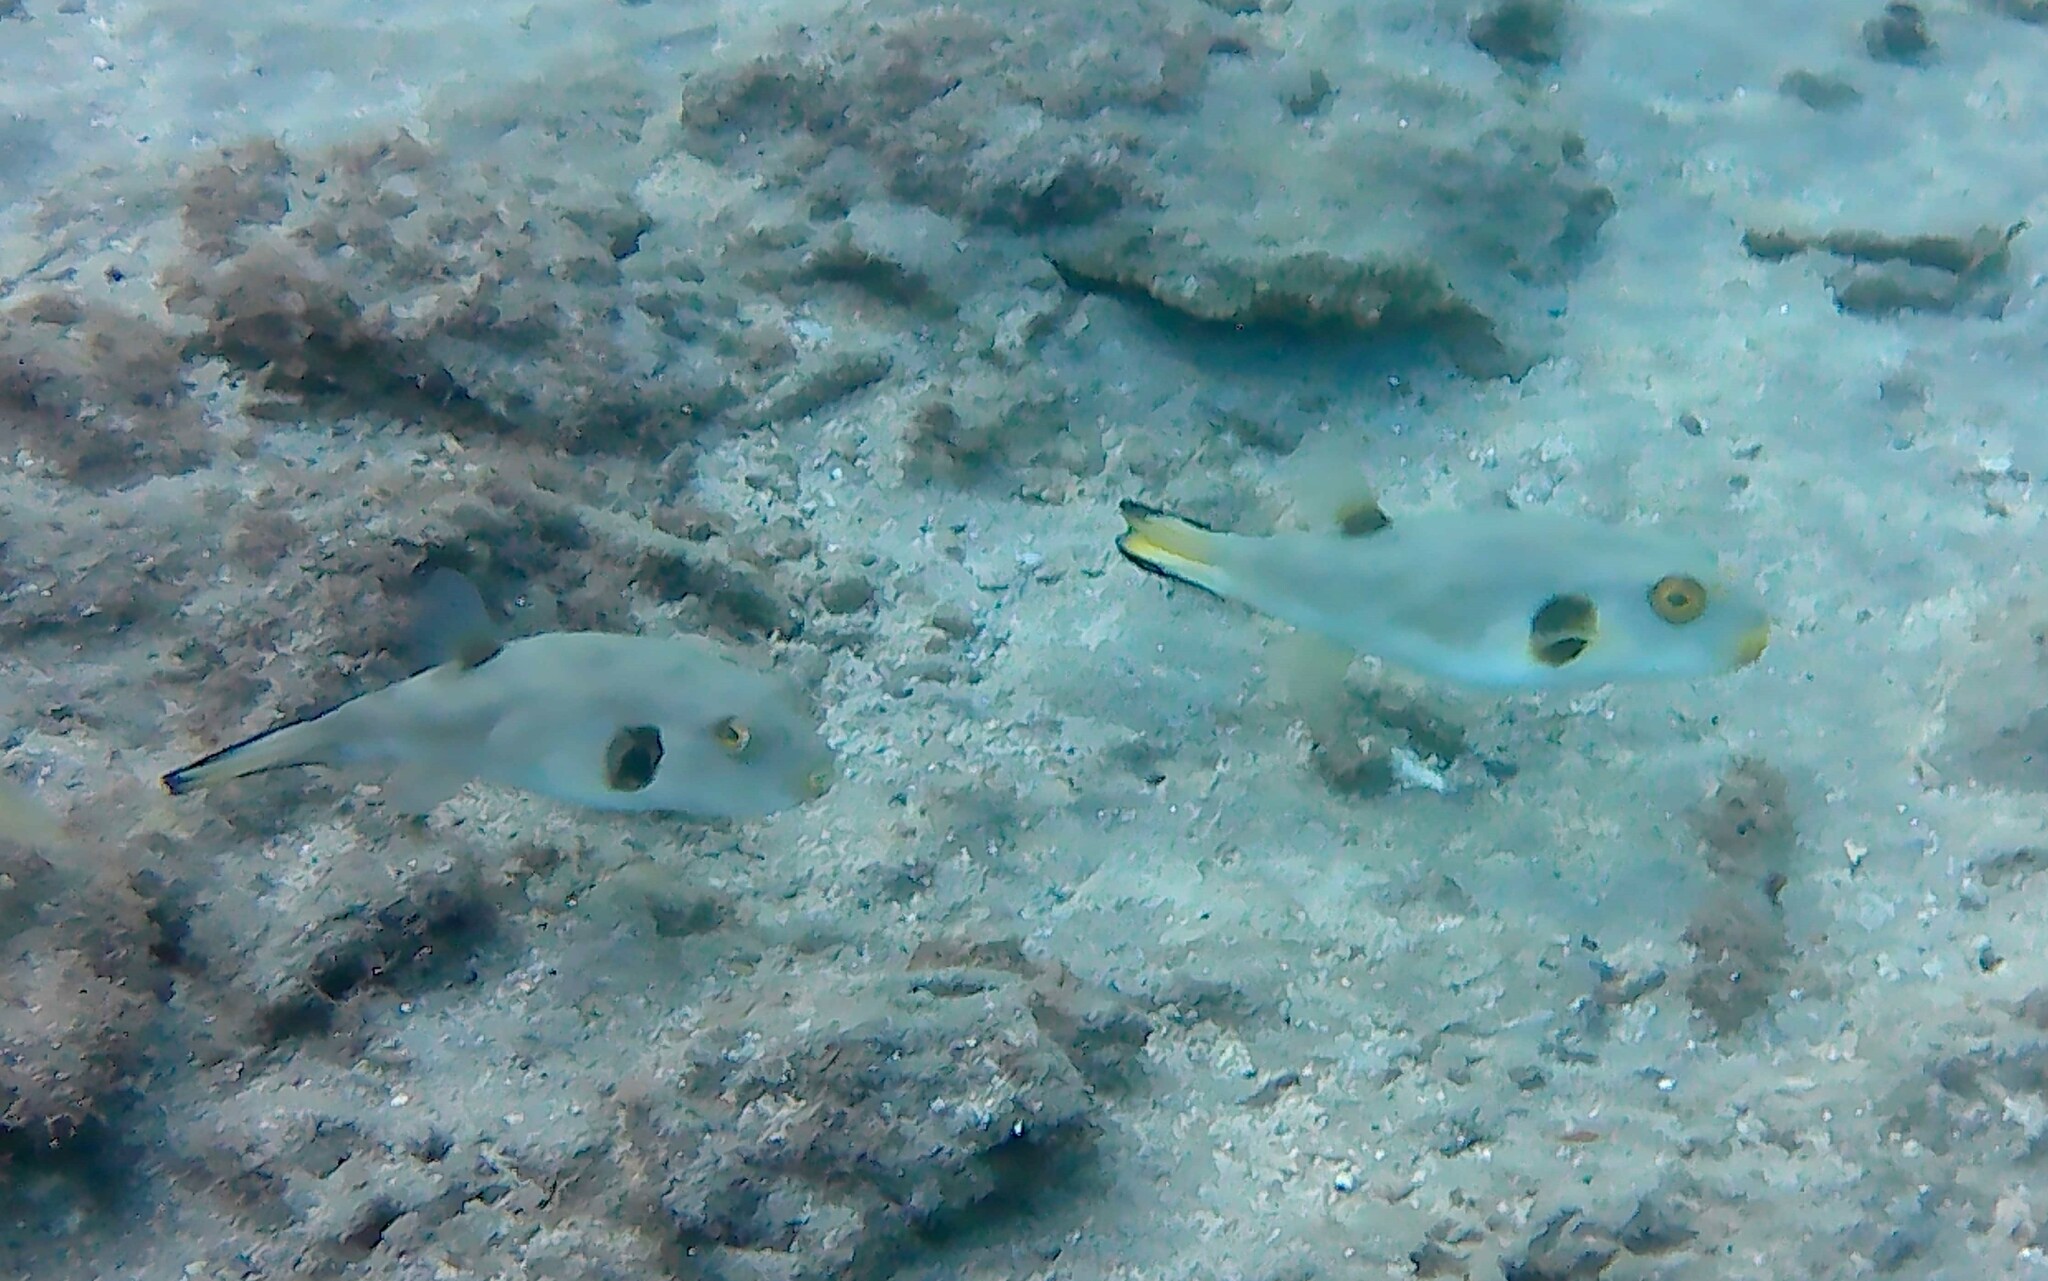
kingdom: Animalia
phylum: Chordata
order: Tetraodontiformes
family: Tetraodontidae
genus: Arothron
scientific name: Arothron immaculatus
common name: Blackedged blaasop
